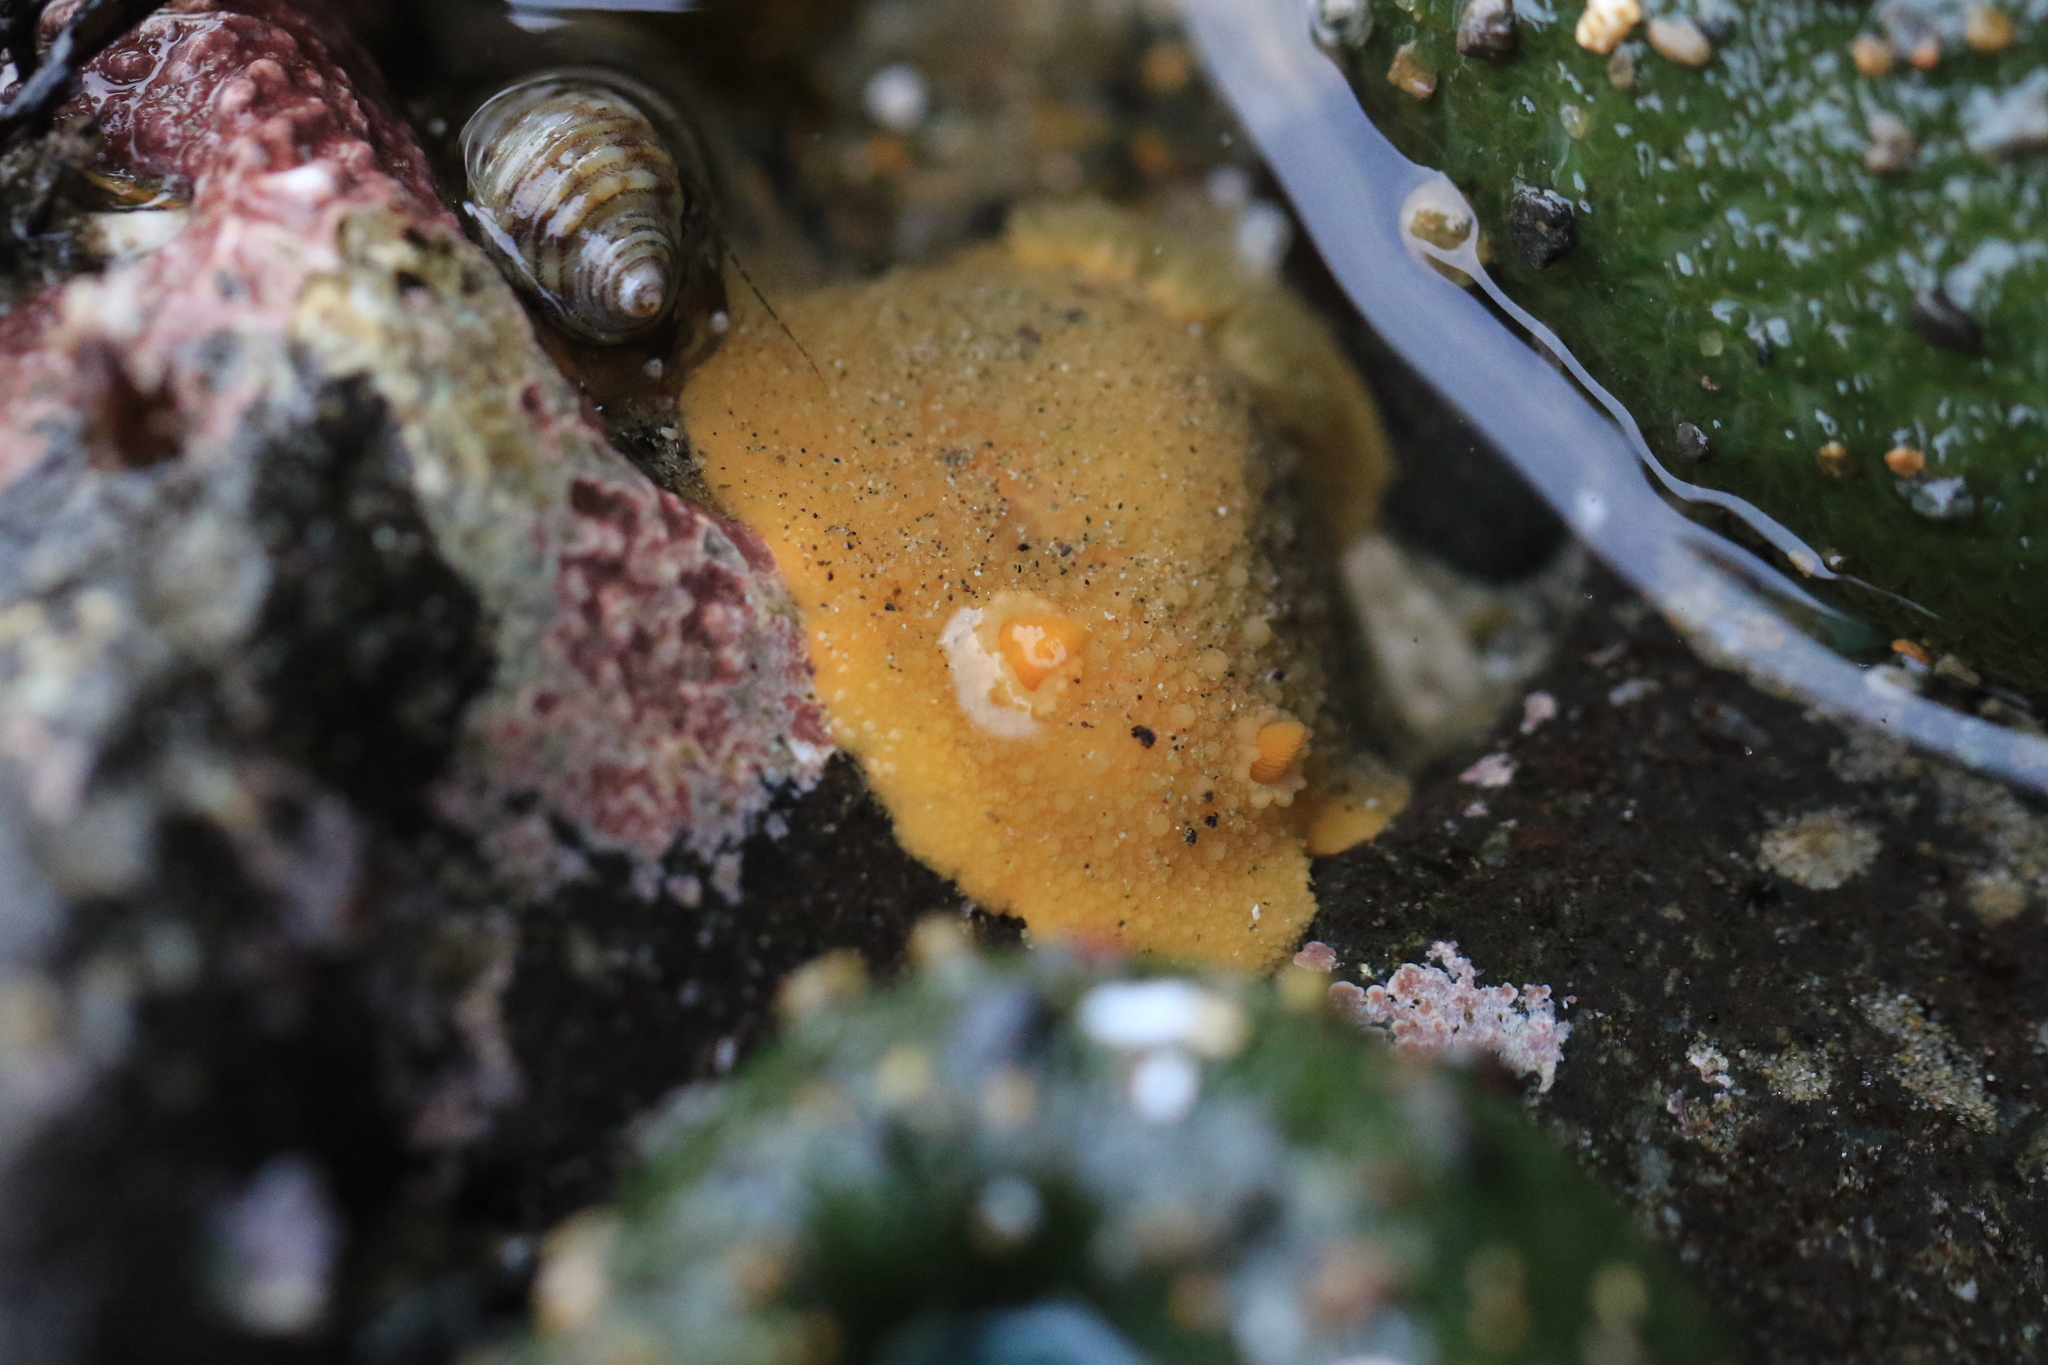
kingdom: Animalia
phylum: Mollusca
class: Gastropoda
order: Nudibranchia
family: Dorididae
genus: Doris
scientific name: Doris montereyensis
